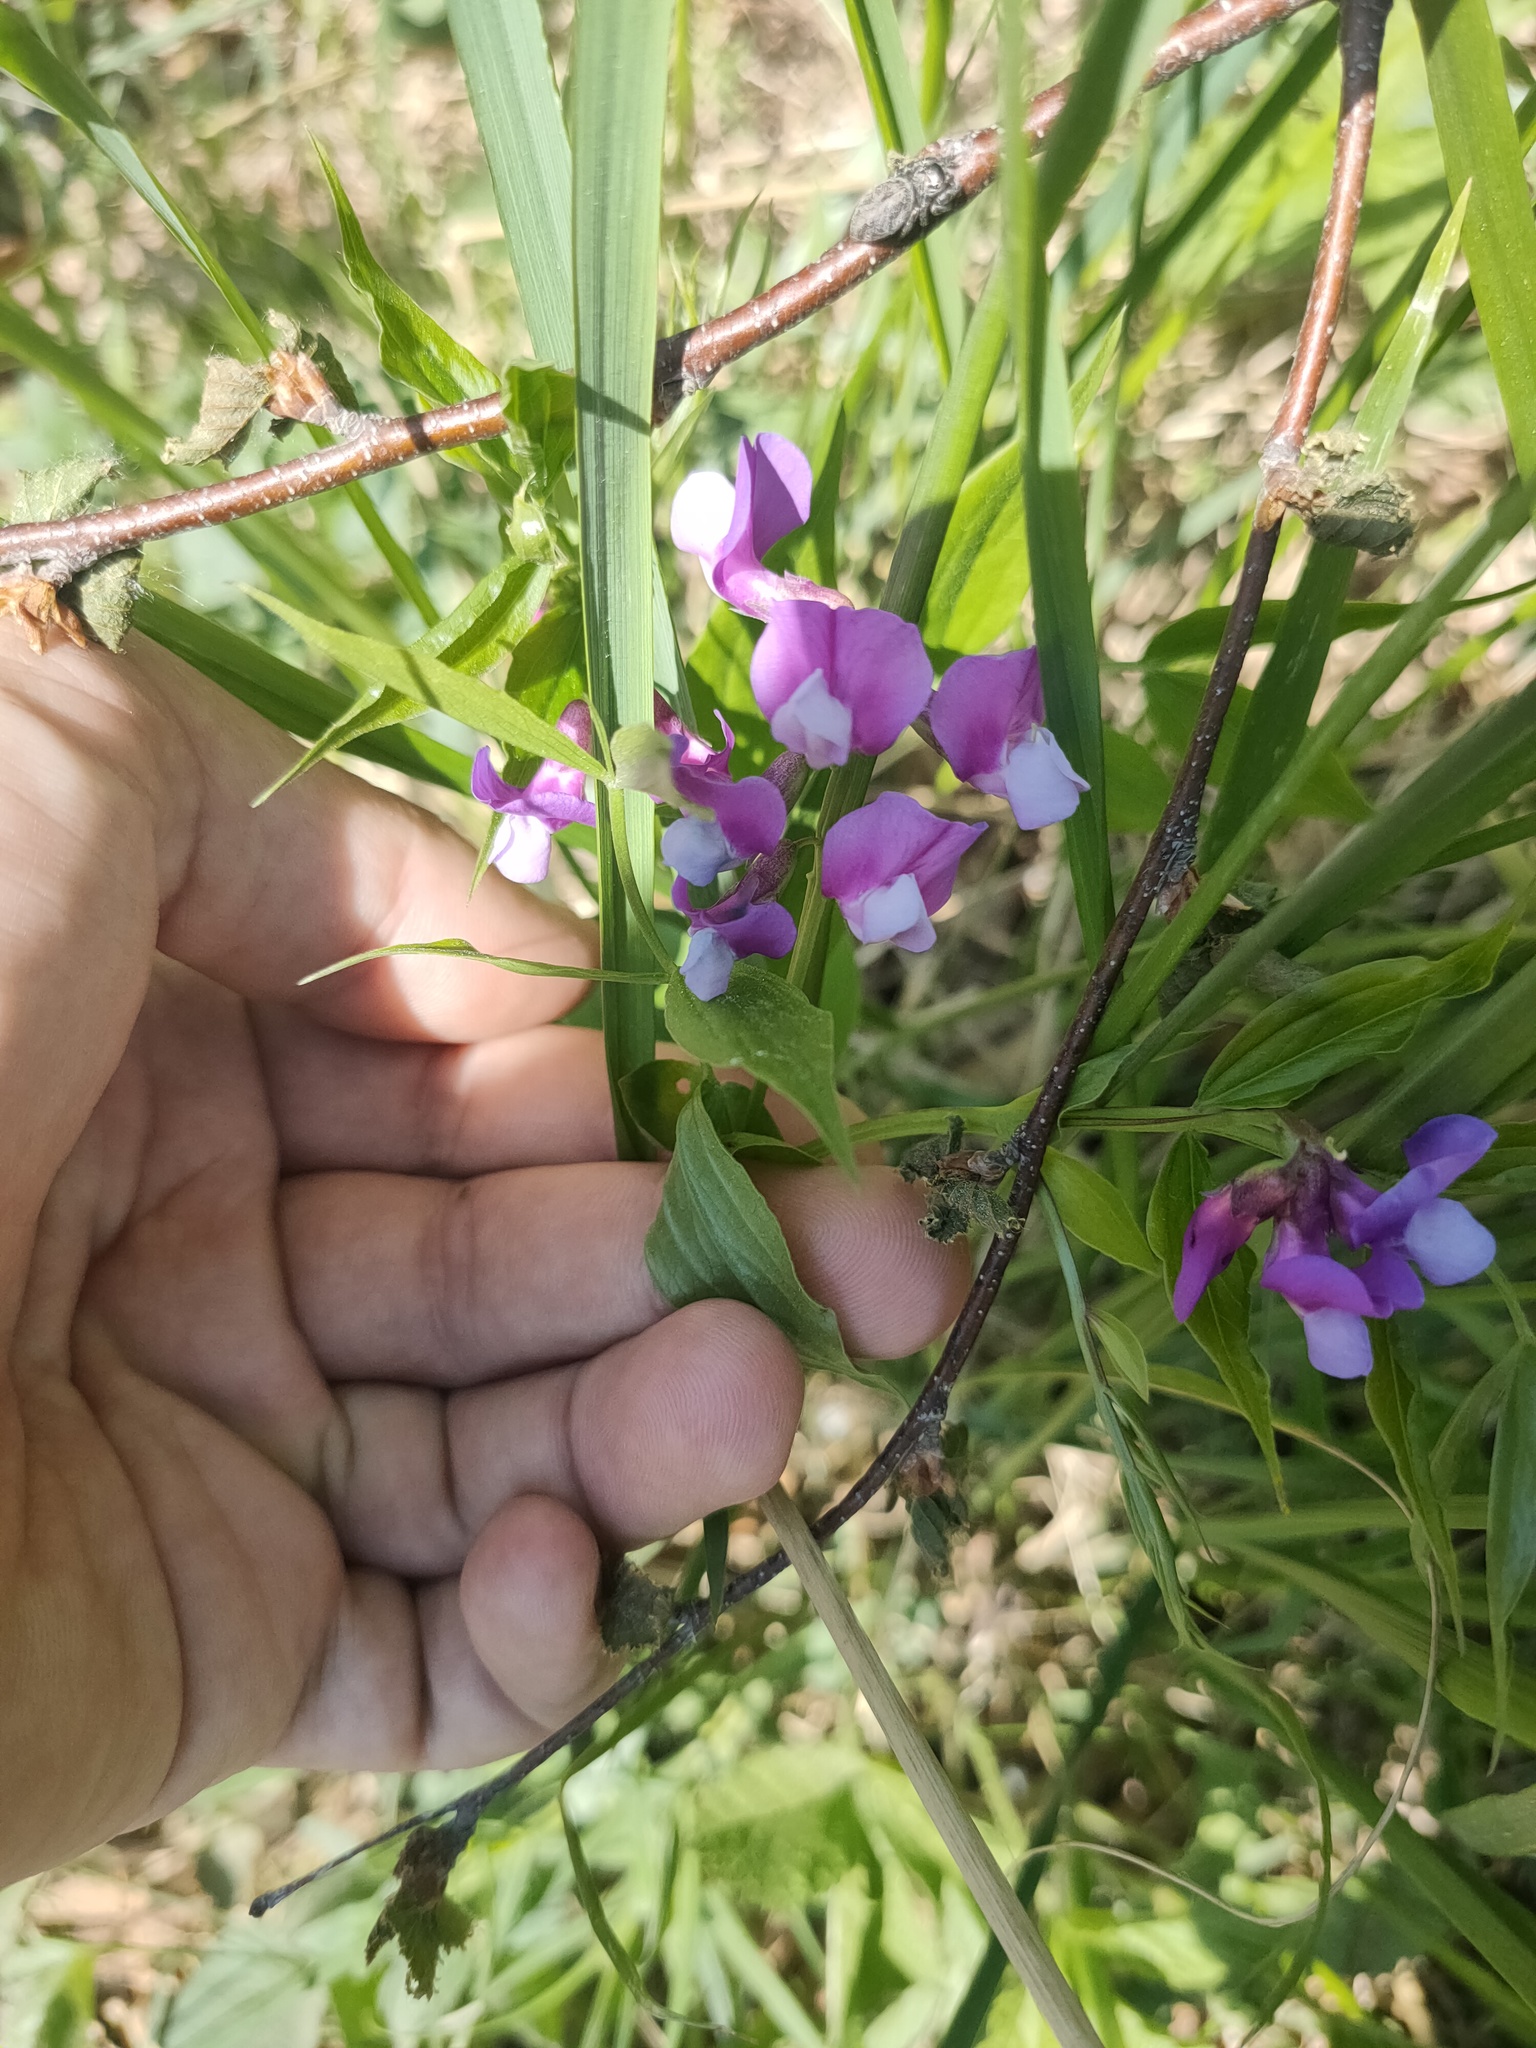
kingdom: Plantae
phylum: Tracheophyta
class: Magnoliopsida
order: Fabales
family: Fabaceae
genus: Lathyrus
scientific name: Lathyrus vernus
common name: Spring pea
